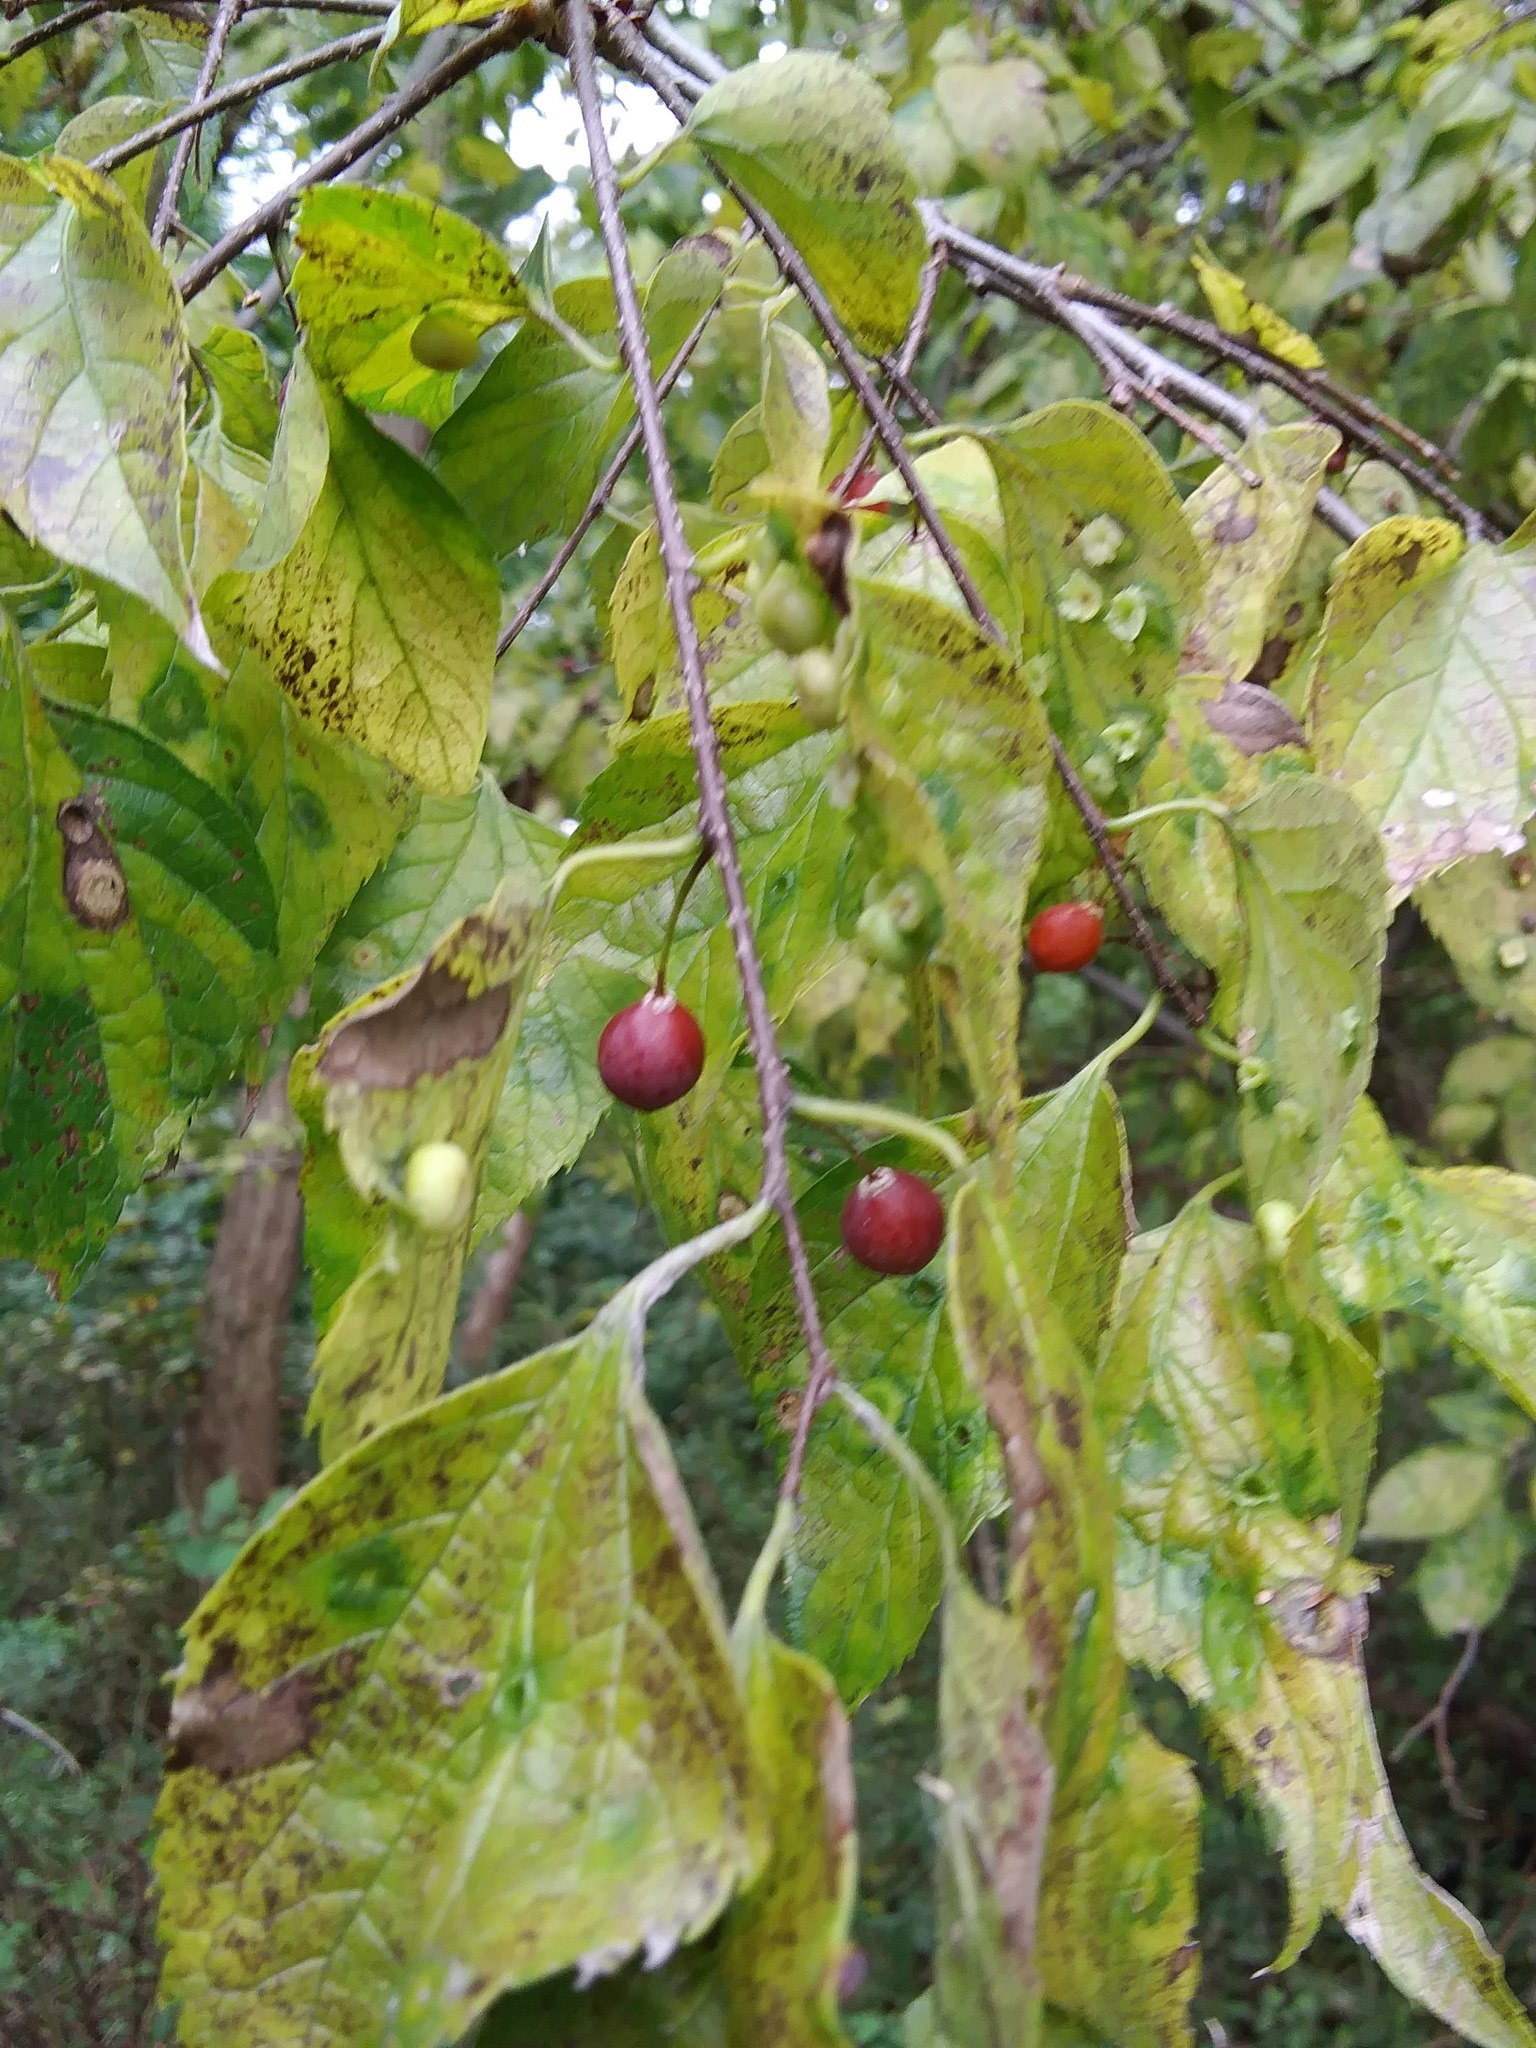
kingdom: Plantae
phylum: Tracheophyta
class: Magnoliopsida
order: Rosales
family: Cannabaceae
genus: Celtis
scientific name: Celtis occidentalis
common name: Common hackberry
